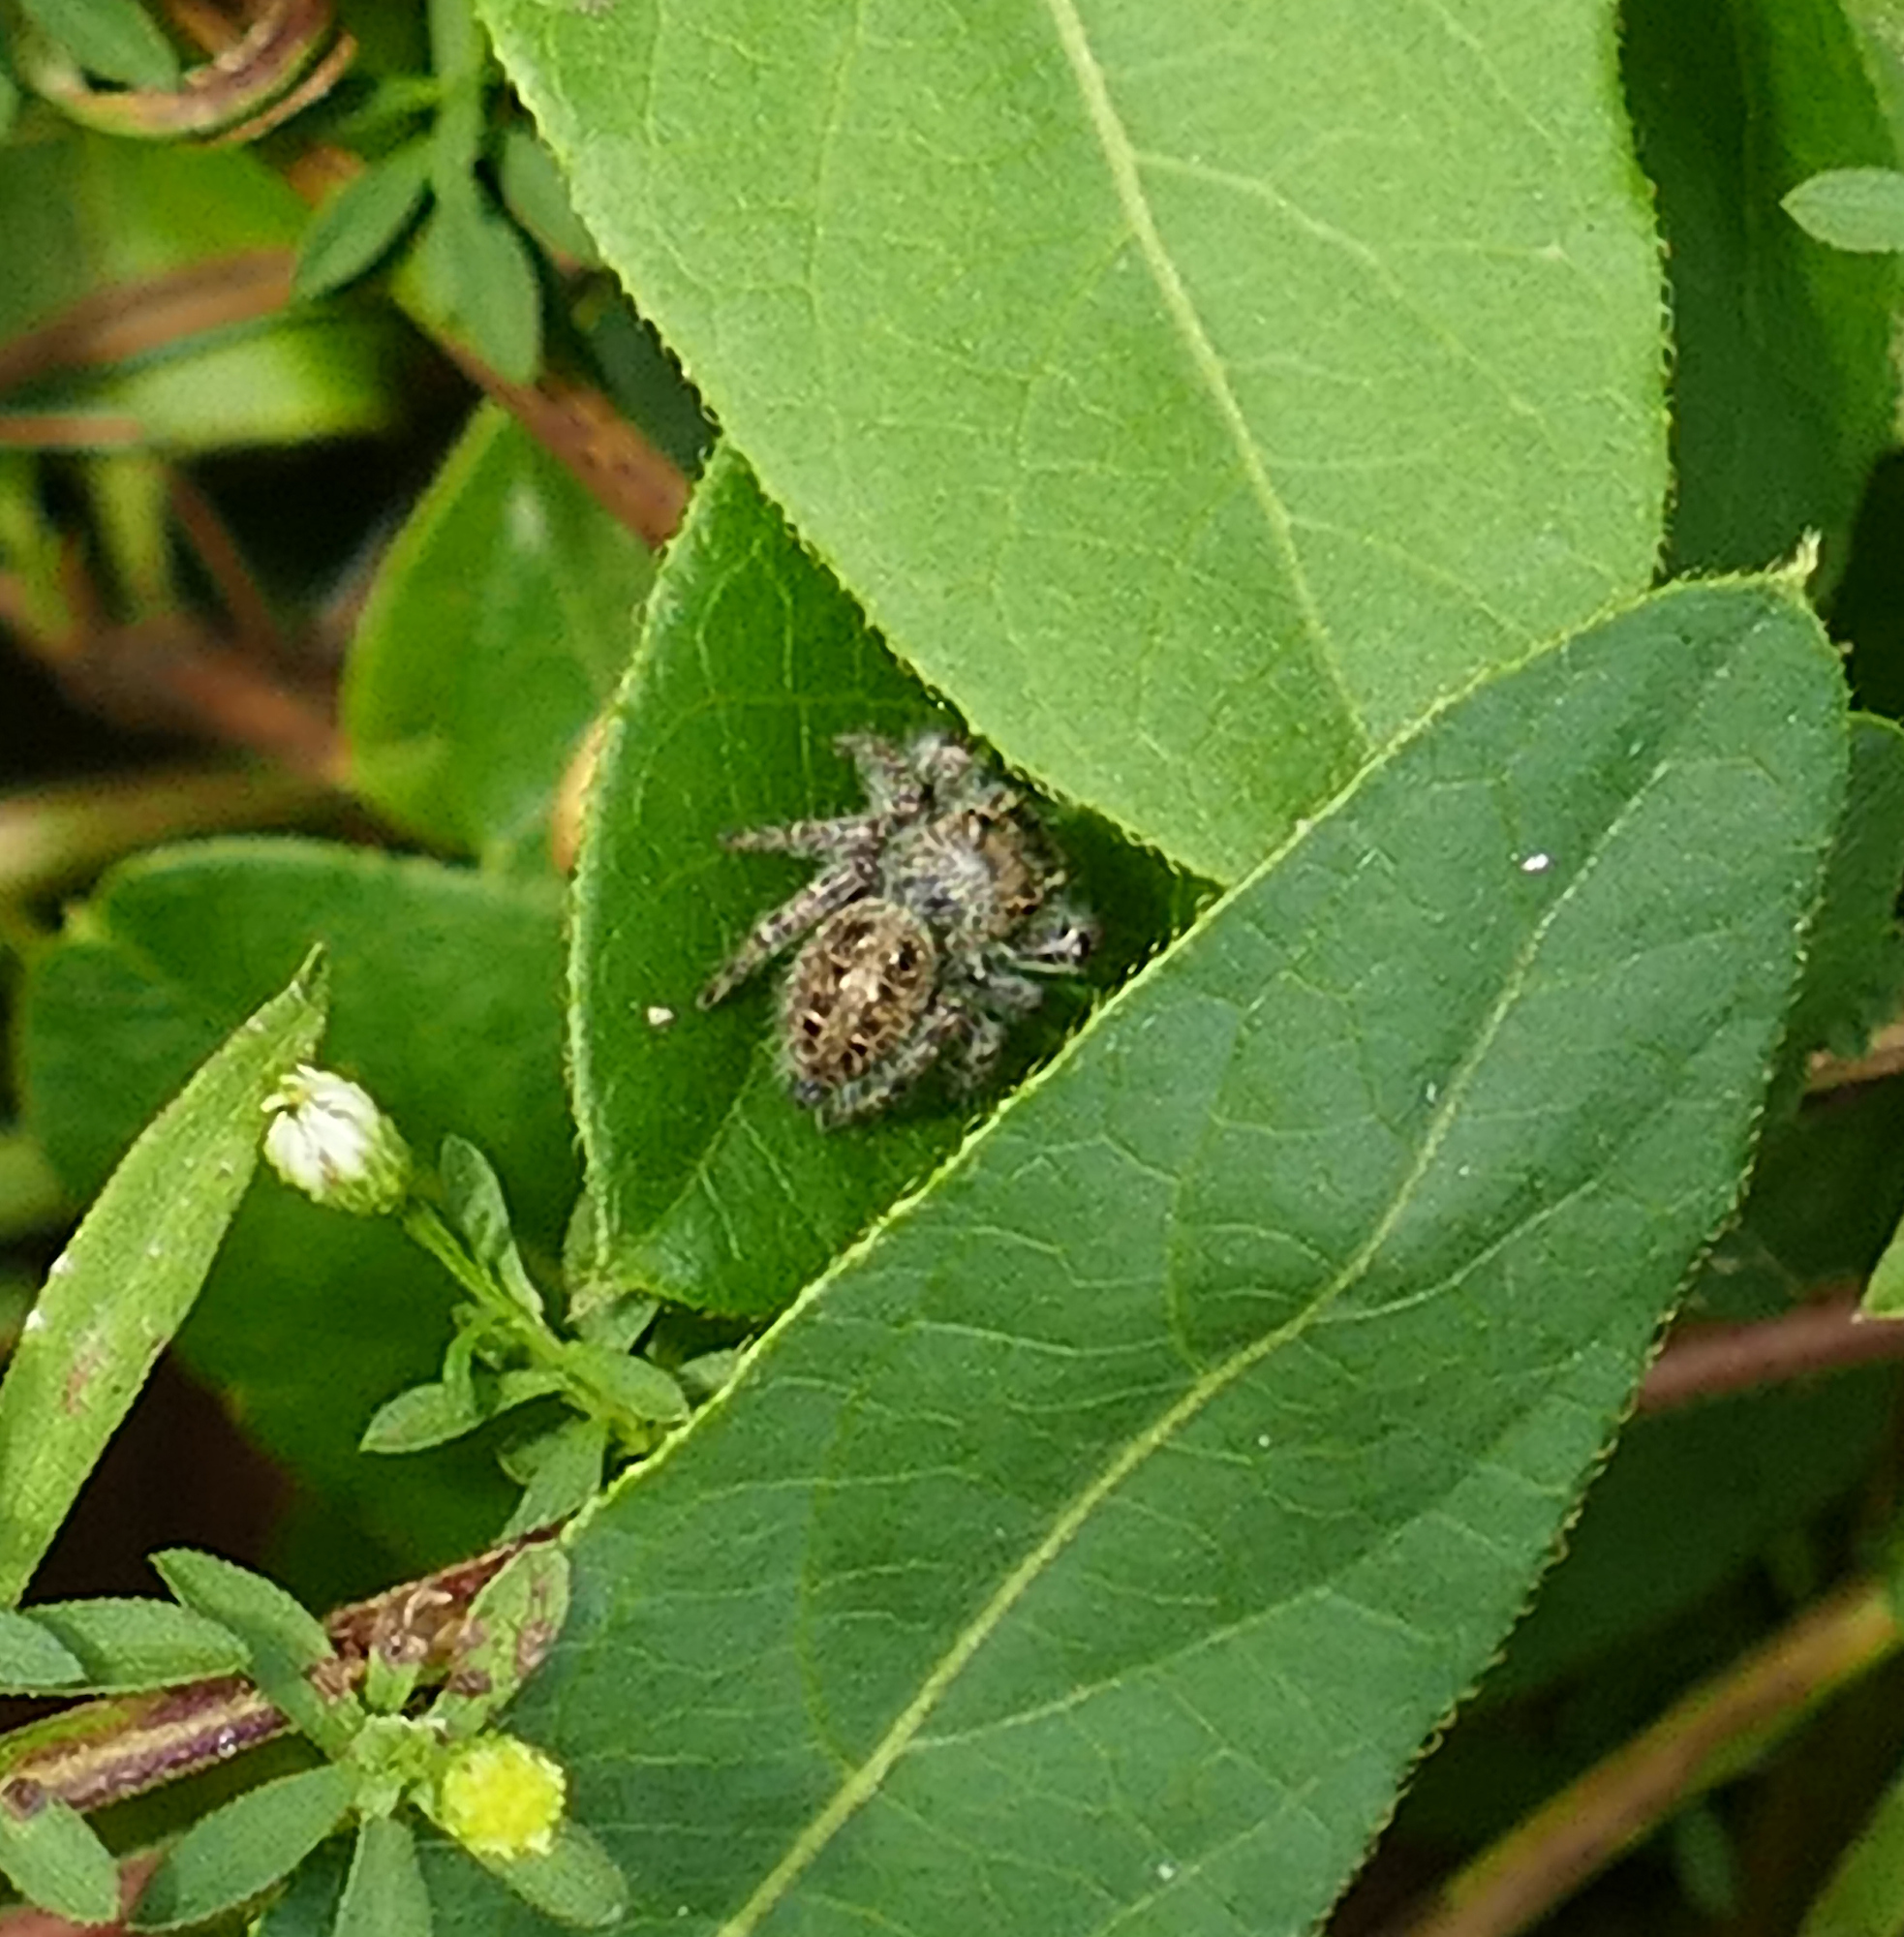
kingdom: Animalia
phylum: Arthropoda
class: Arachnida
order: Araneae
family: Salticidae
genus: Phidippus
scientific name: Phidippus princeps
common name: Grayish jumping spider
